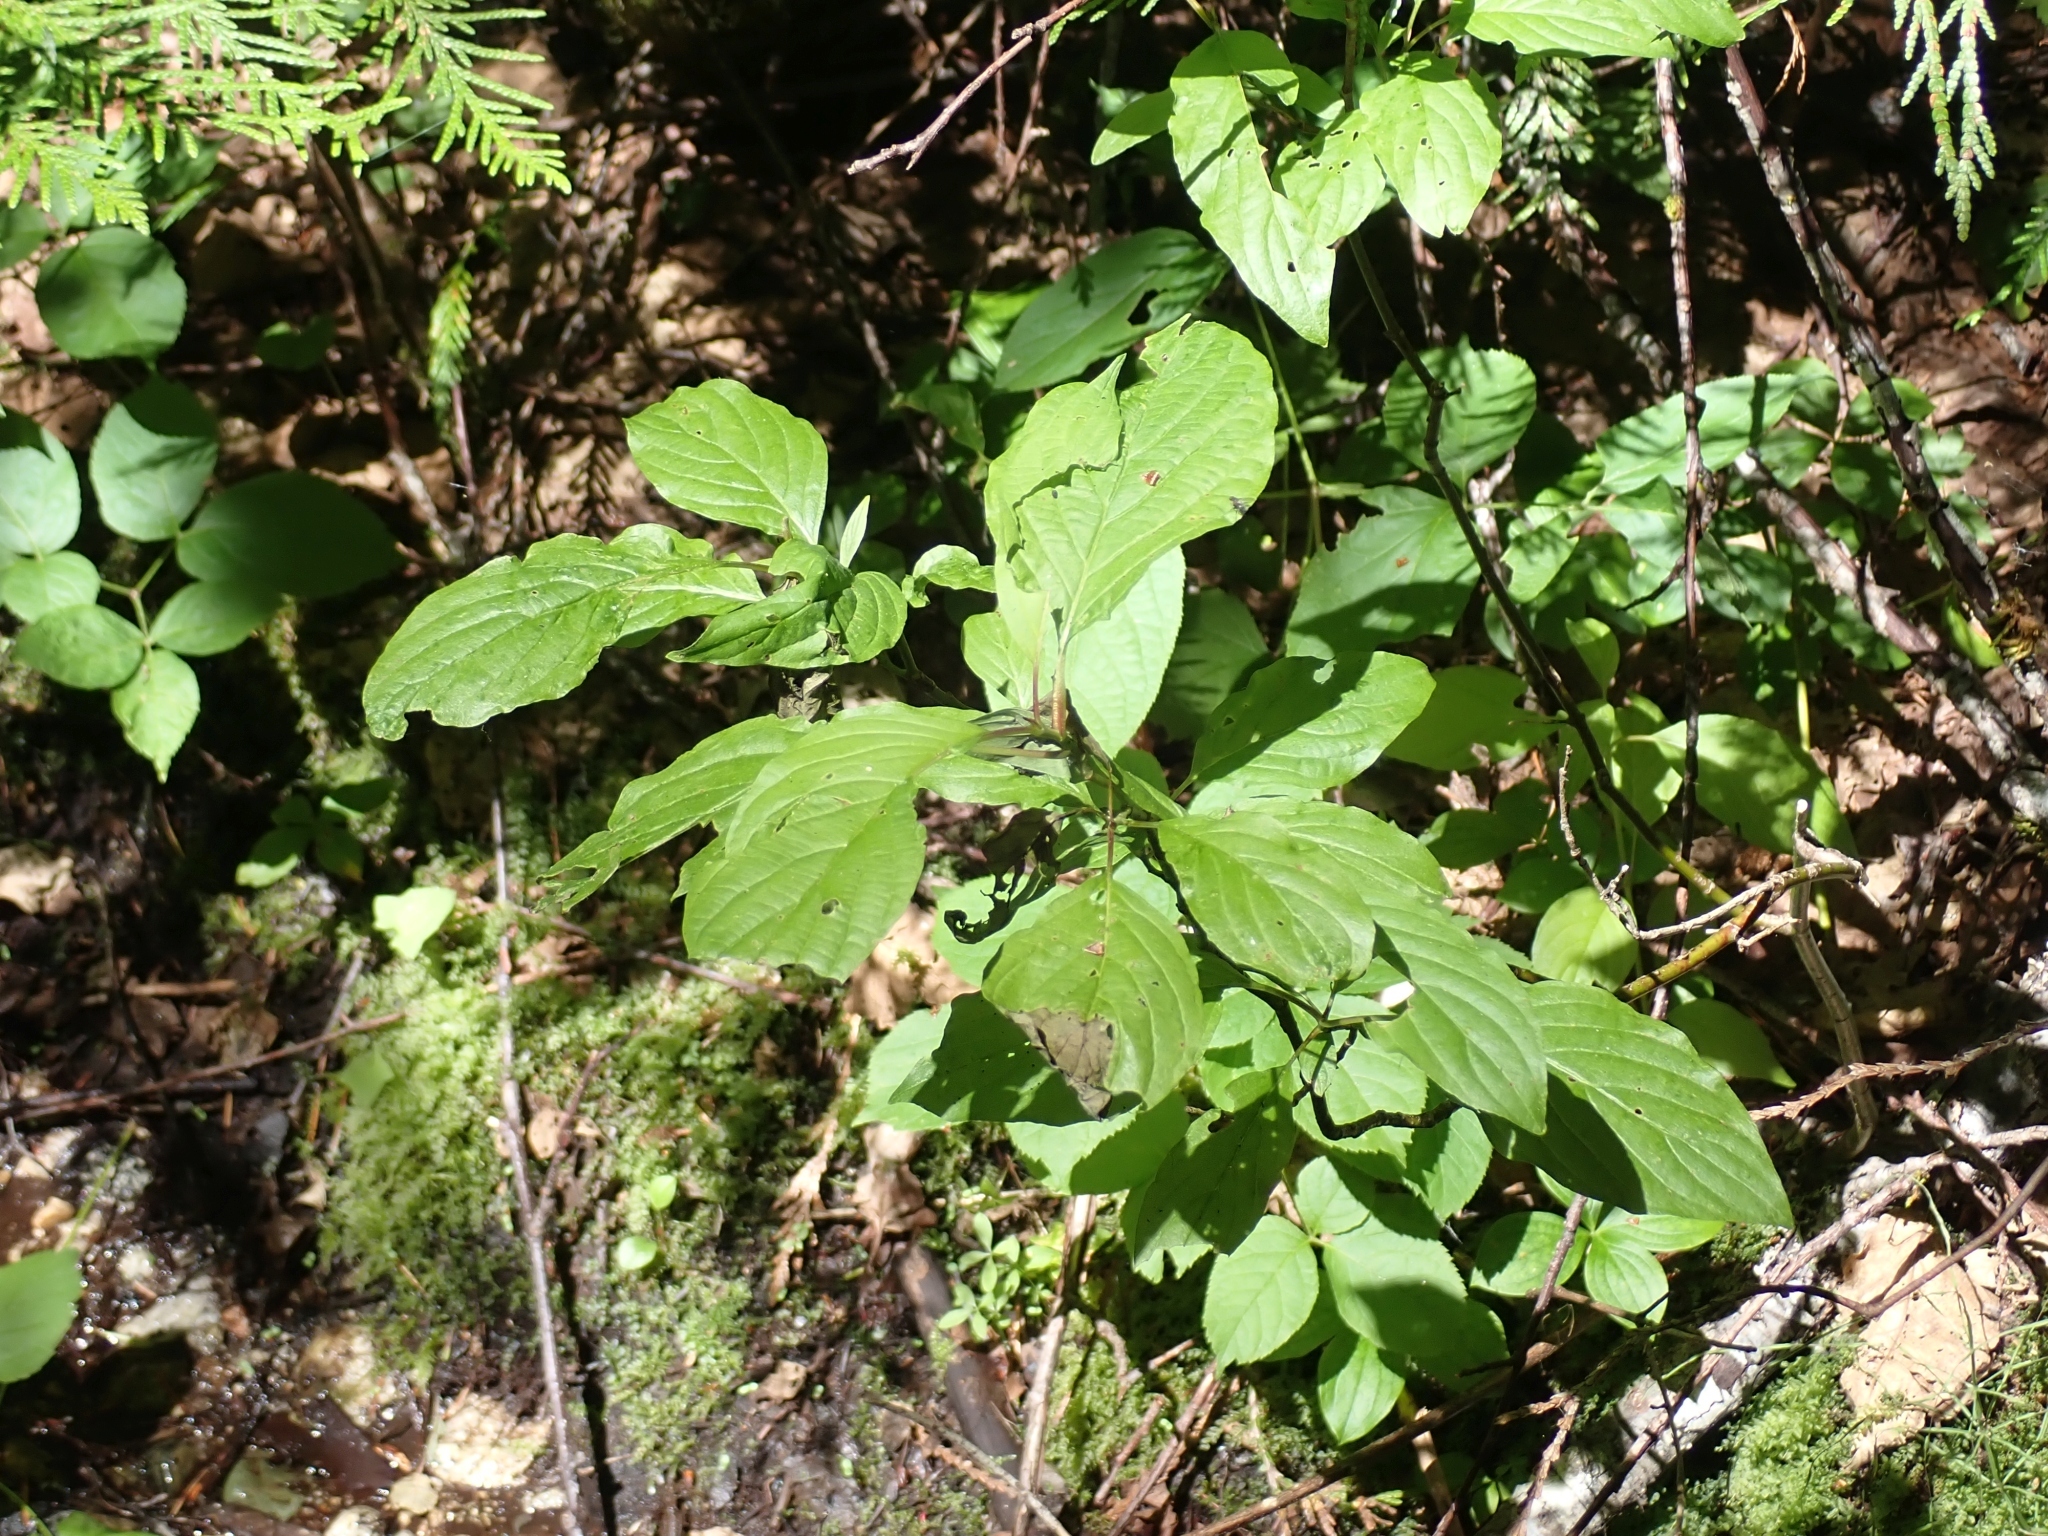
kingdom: Plantae
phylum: Tracheophyta
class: Magnoliopsida
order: Cornales
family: Cornaceae
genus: Cornus
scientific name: Cornus sericea
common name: Red-osier dogwood
